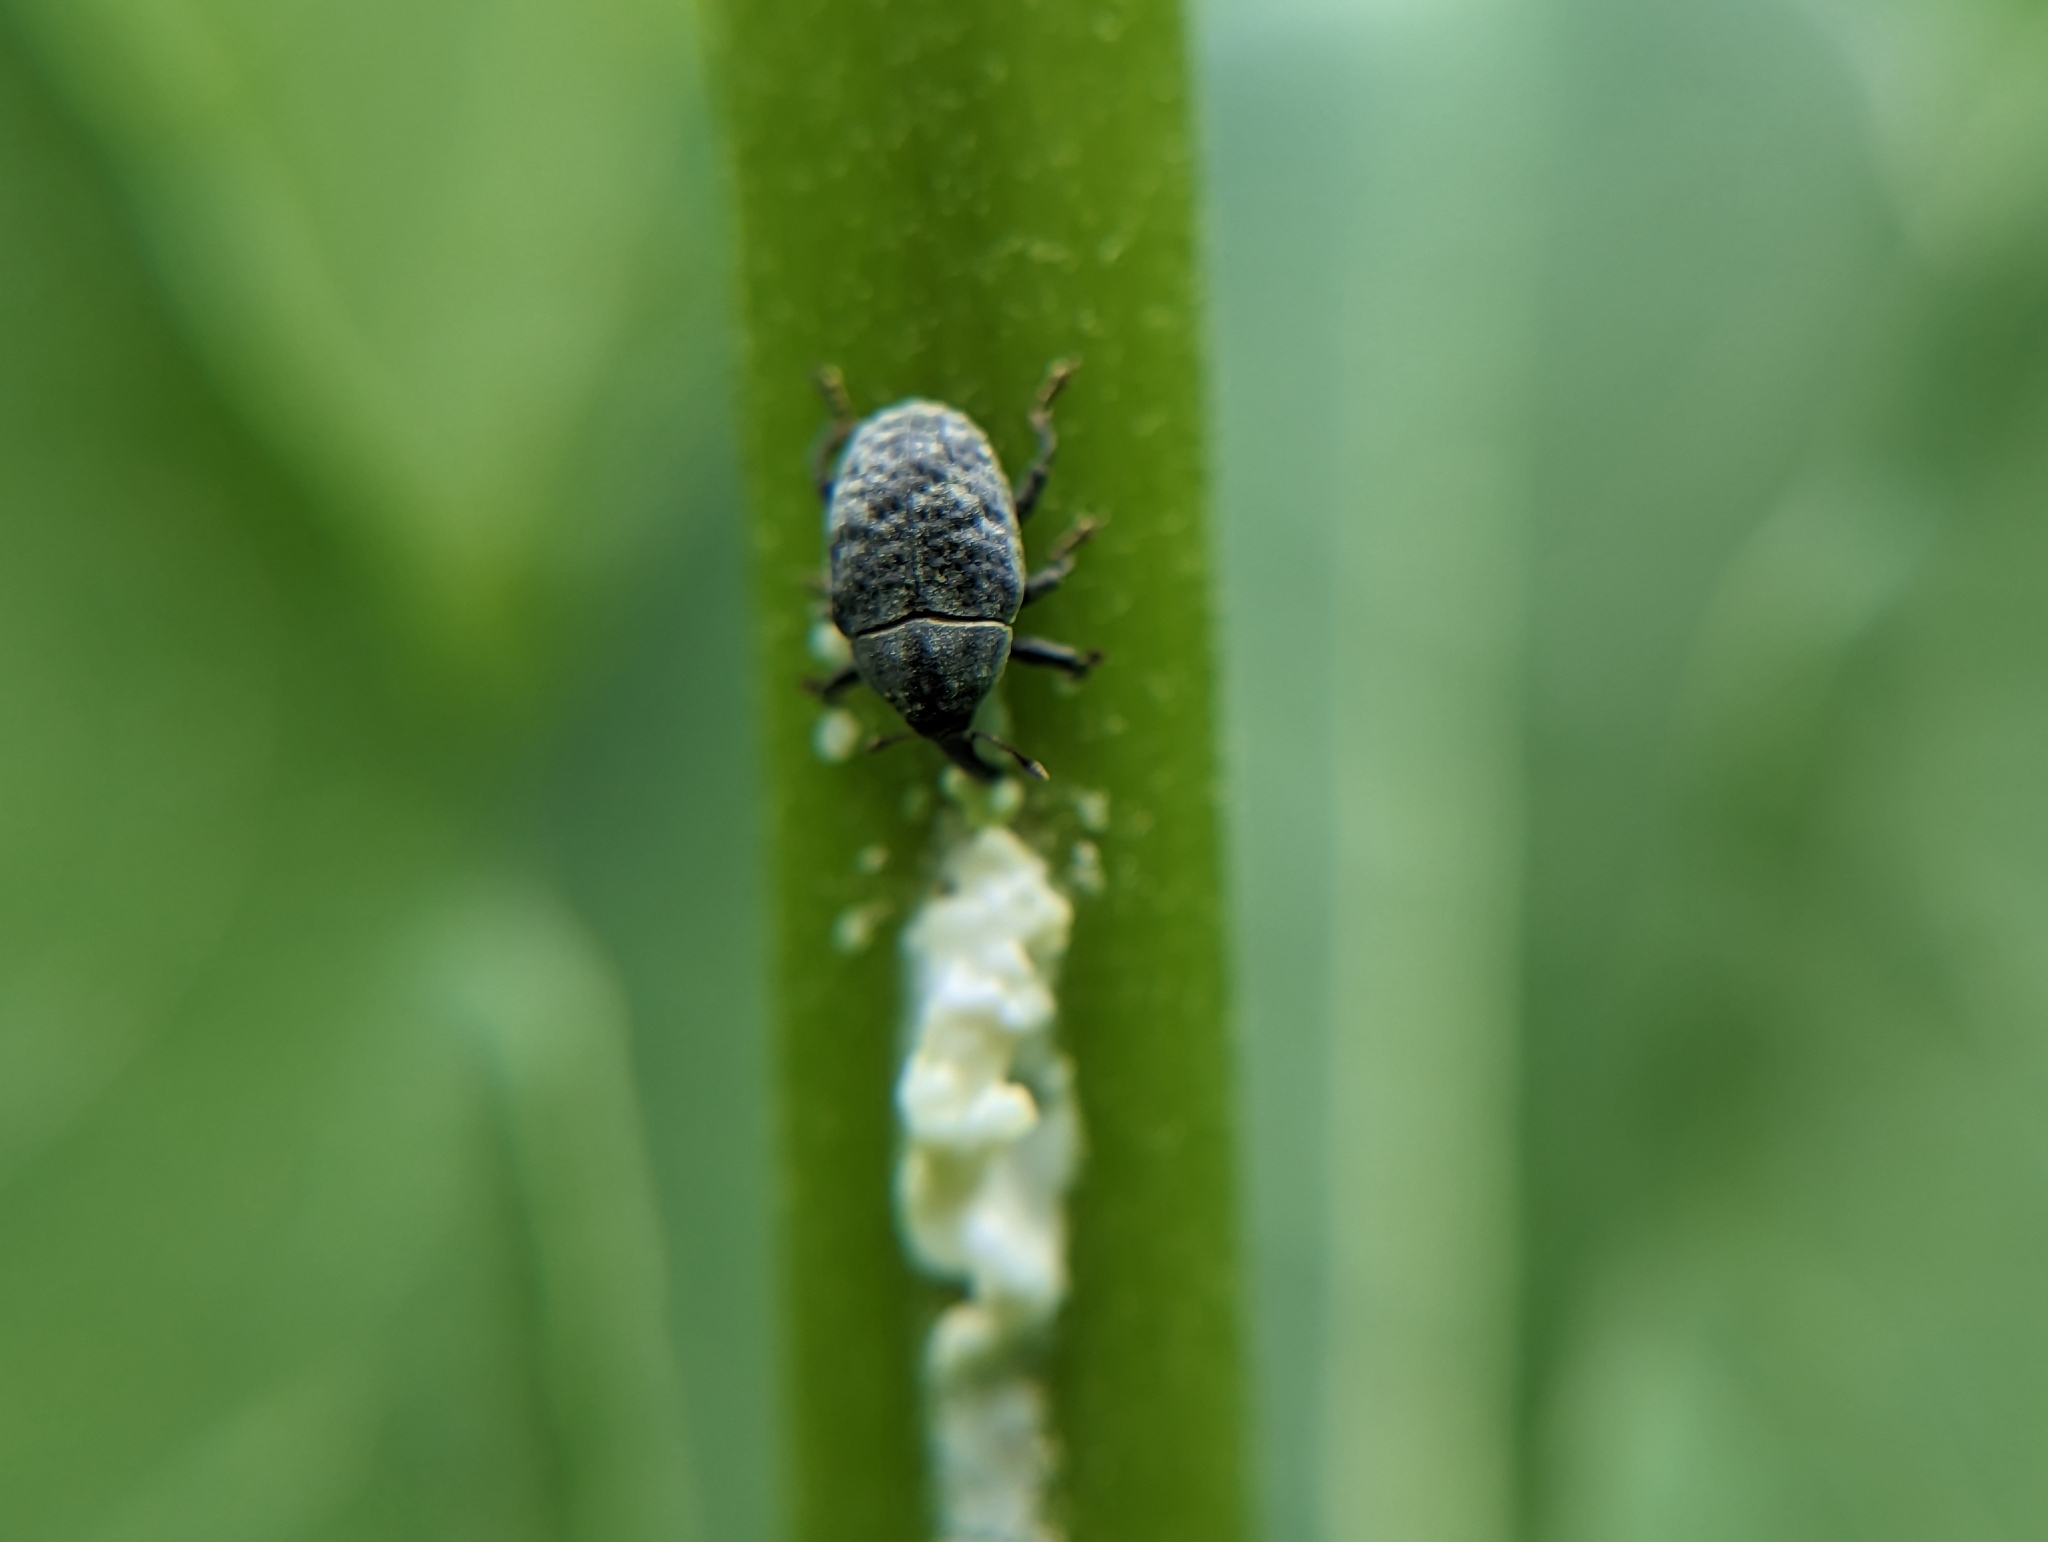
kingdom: Animalia
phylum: Arthropoda
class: Insecta
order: Coleoptera
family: Curculionidae
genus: Rhyssomatus
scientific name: Rhyssomatus lineaticollis
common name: Milkweed stem weevil
